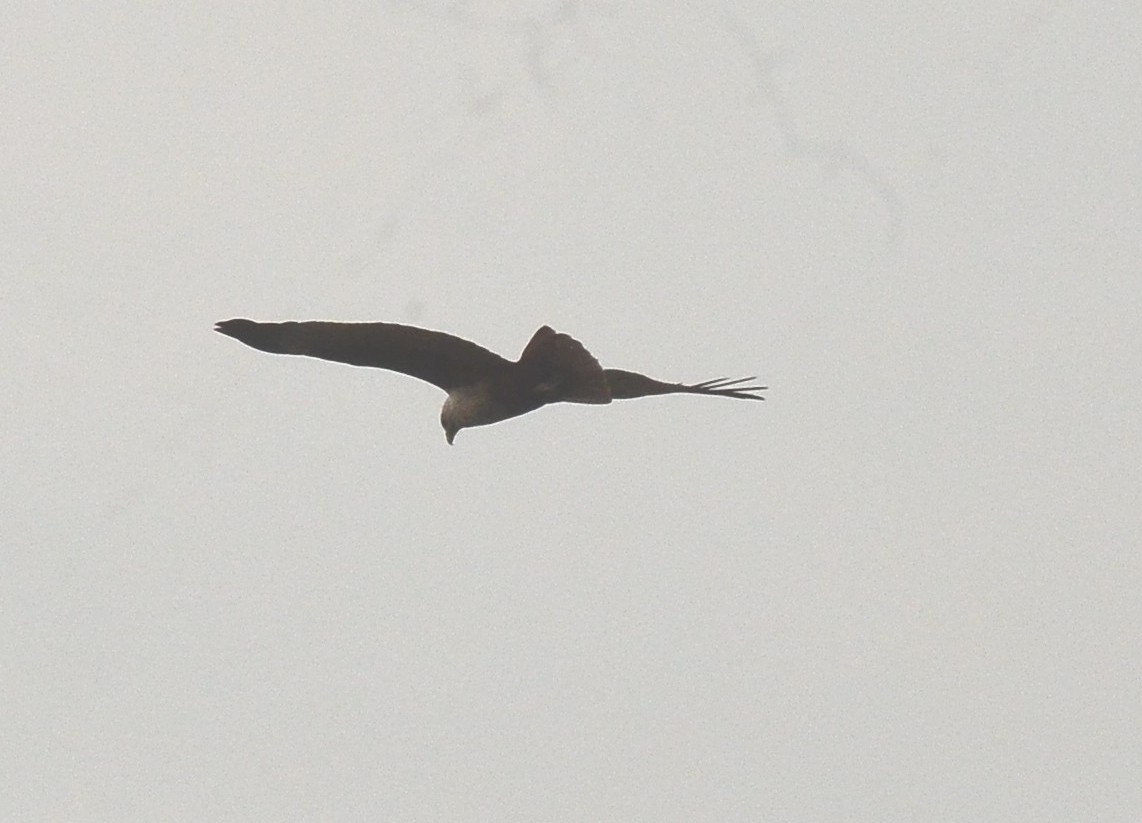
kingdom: Animalia
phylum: Chordata
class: Aves
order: Accipitriformes
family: Accipitridae
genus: Haliastur
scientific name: Haliastur indus
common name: Brahminy kite
